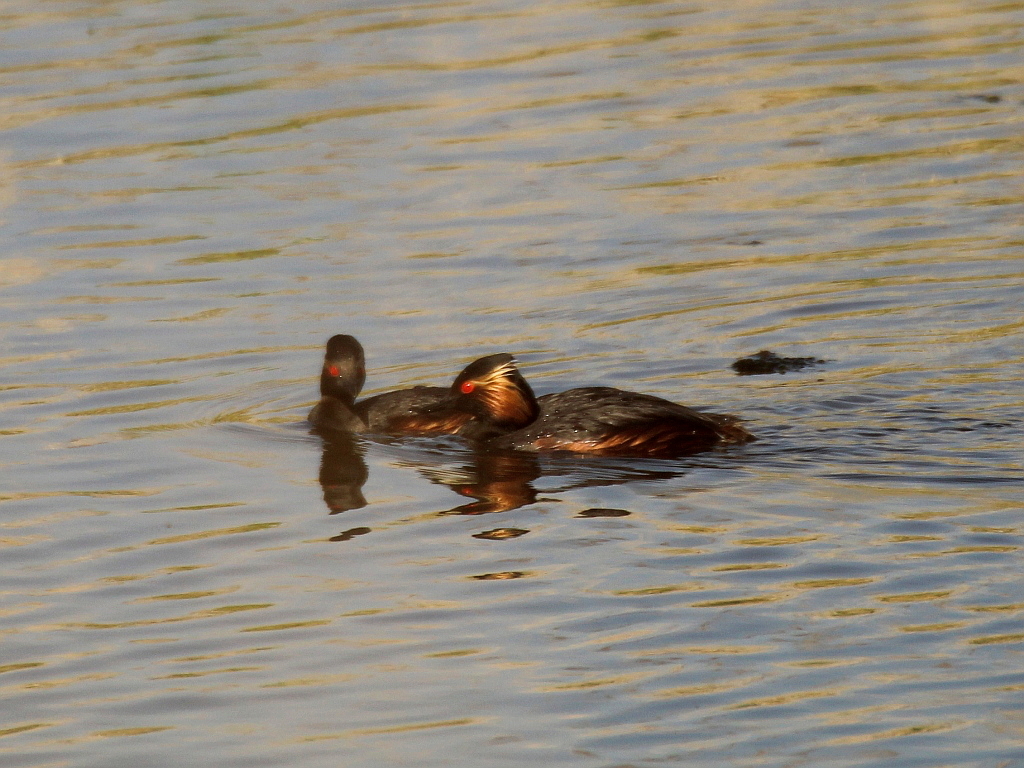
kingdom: Animalia
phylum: Chordata
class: Aves
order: Podicipediformes
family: Podicipedidae
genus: Podiceps
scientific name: Podiceps nigricollis
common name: Black-necked grebe
